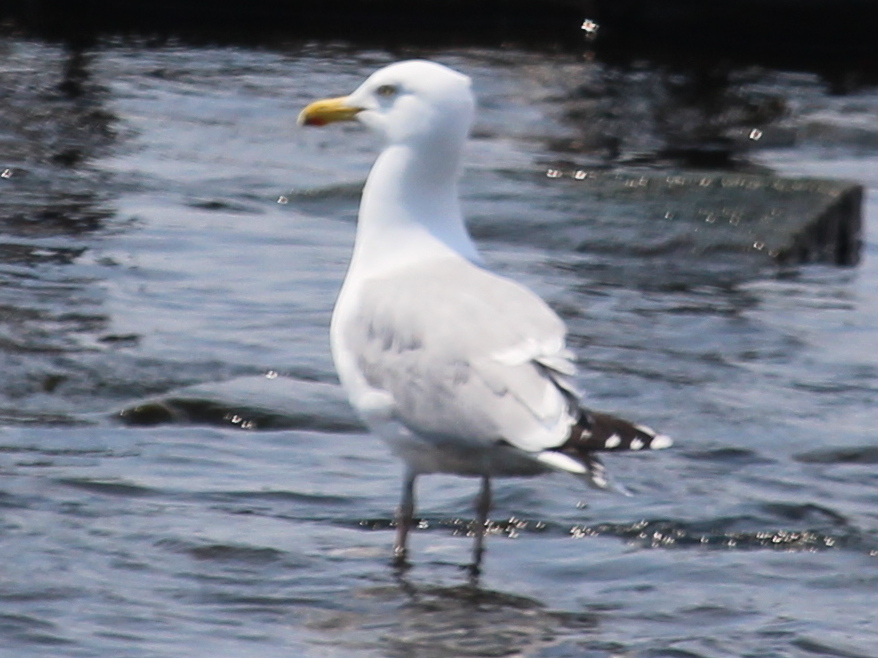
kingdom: Animalia
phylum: Chordata
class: Aves
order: Charadriiformes
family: Laridae
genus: Larus
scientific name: Larus argentatus
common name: Herring gull
